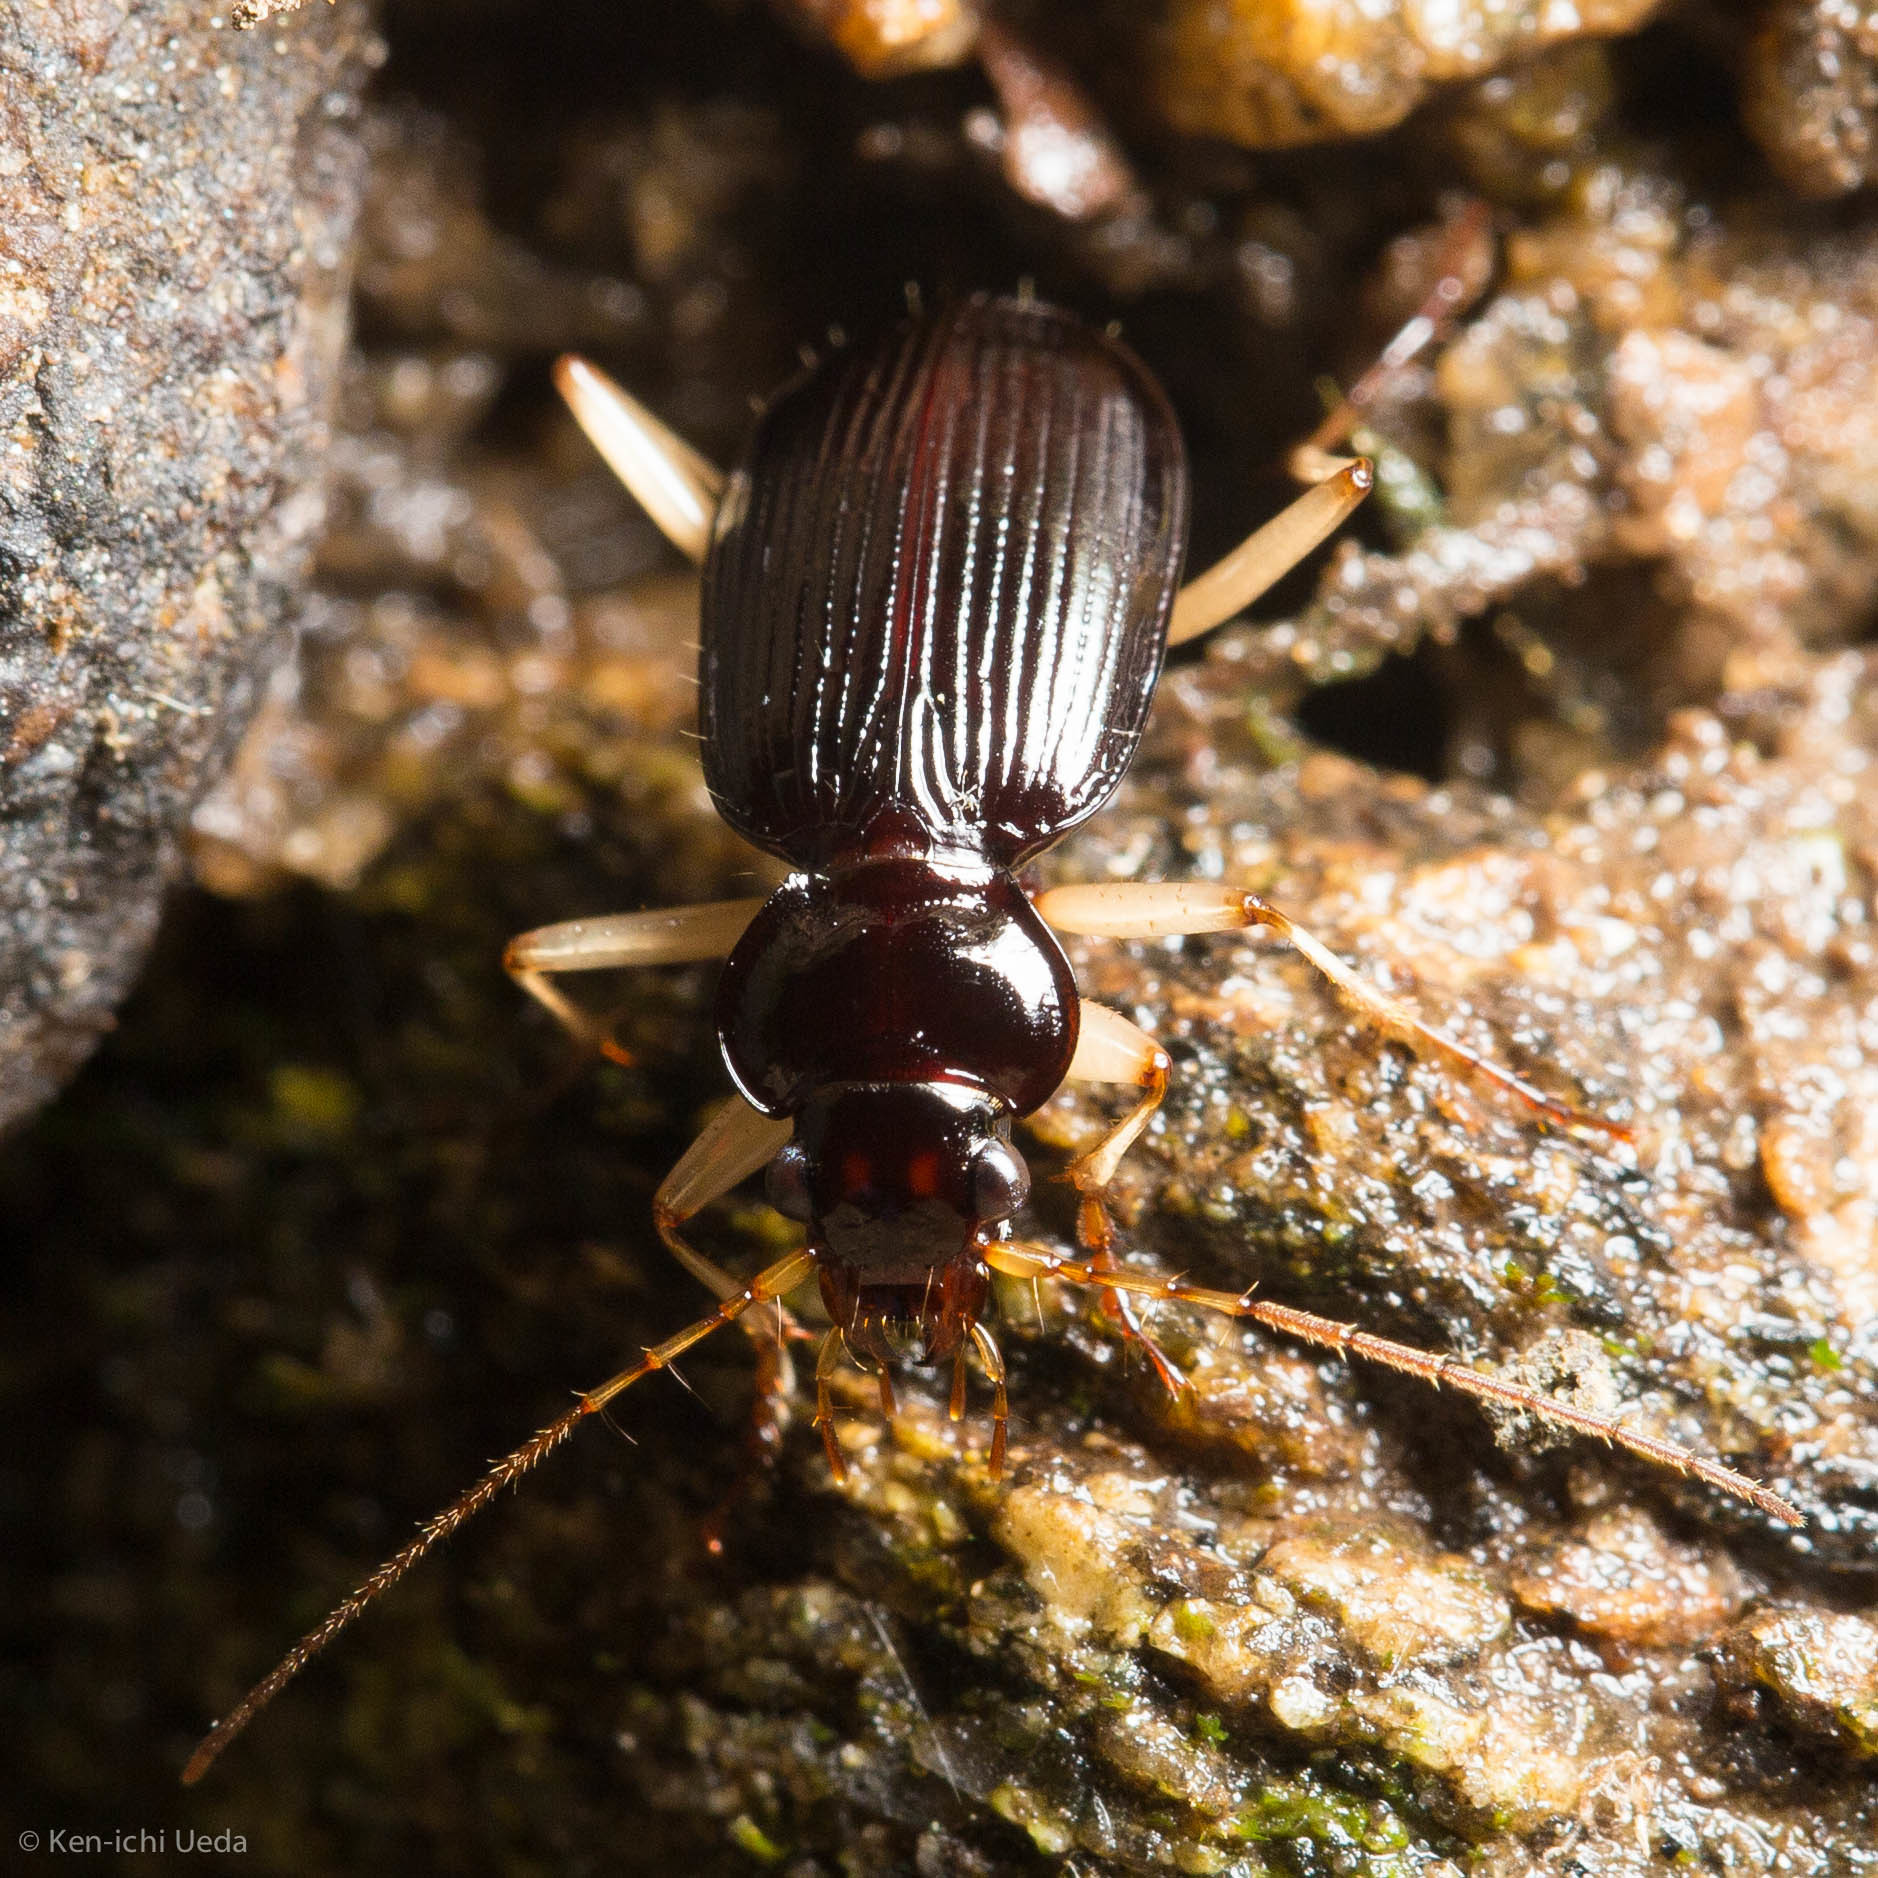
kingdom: Animalia
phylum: Arthropoda
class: Insecta
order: Coleoptera
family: Carabidae
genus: Nebria
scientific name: Nebria pallipes
